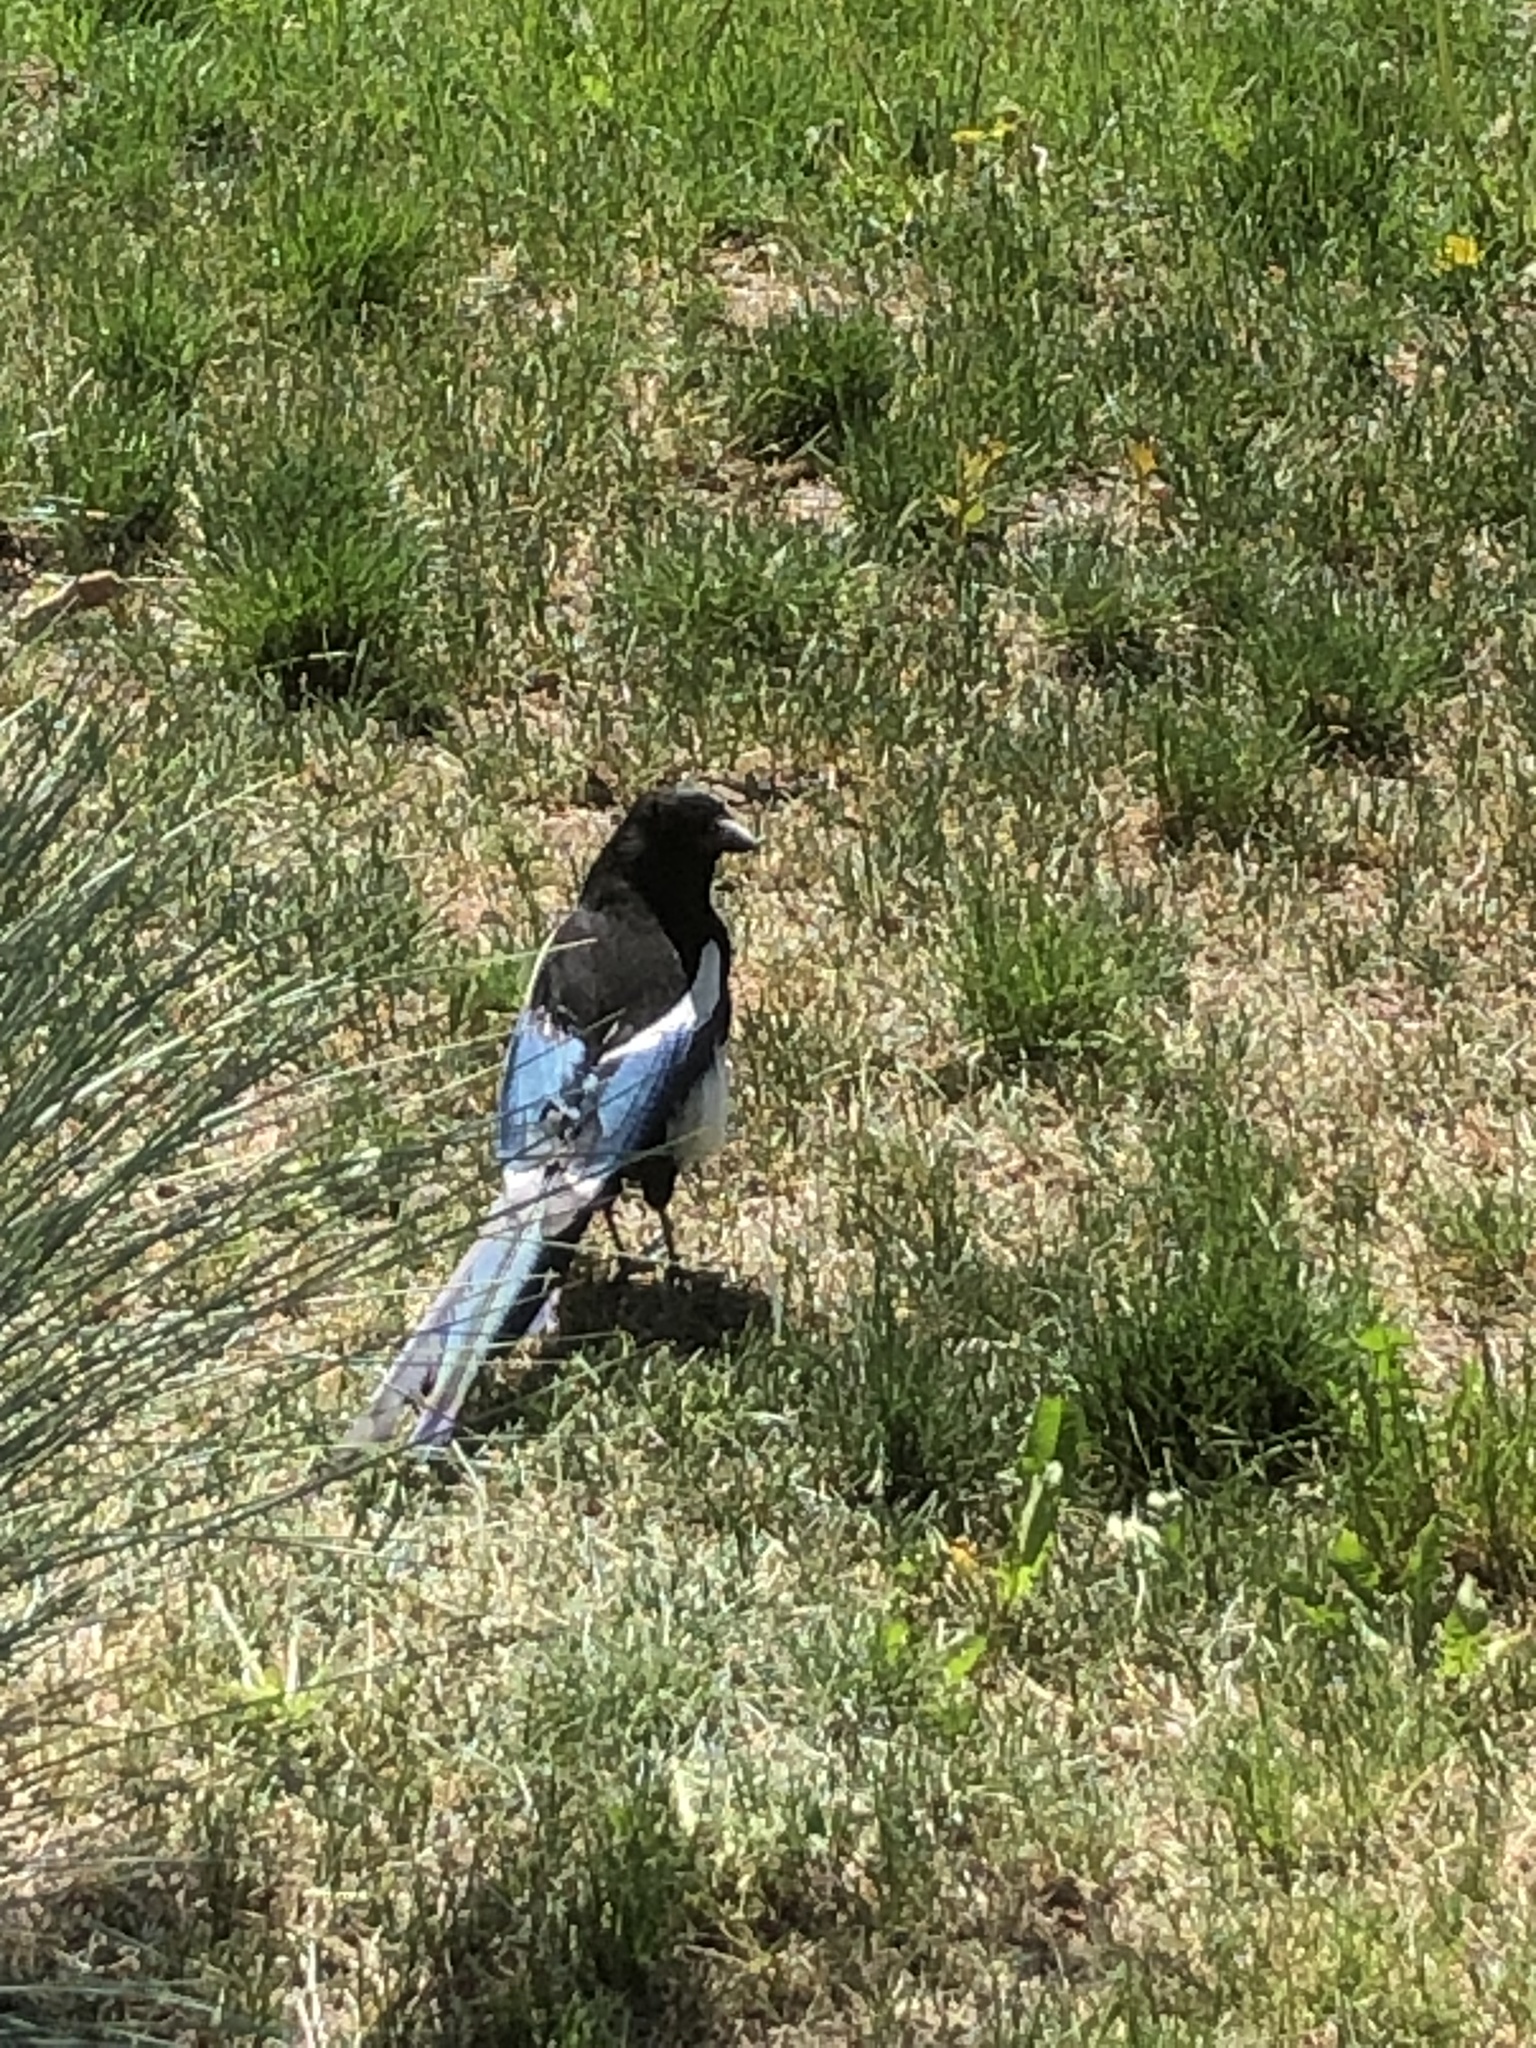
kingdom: Animalia
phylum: Chordata
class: Aves
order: Passeriformes
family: Corvidae
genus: Pica
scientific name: Pica hudsonia
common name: Black-billed magpie
